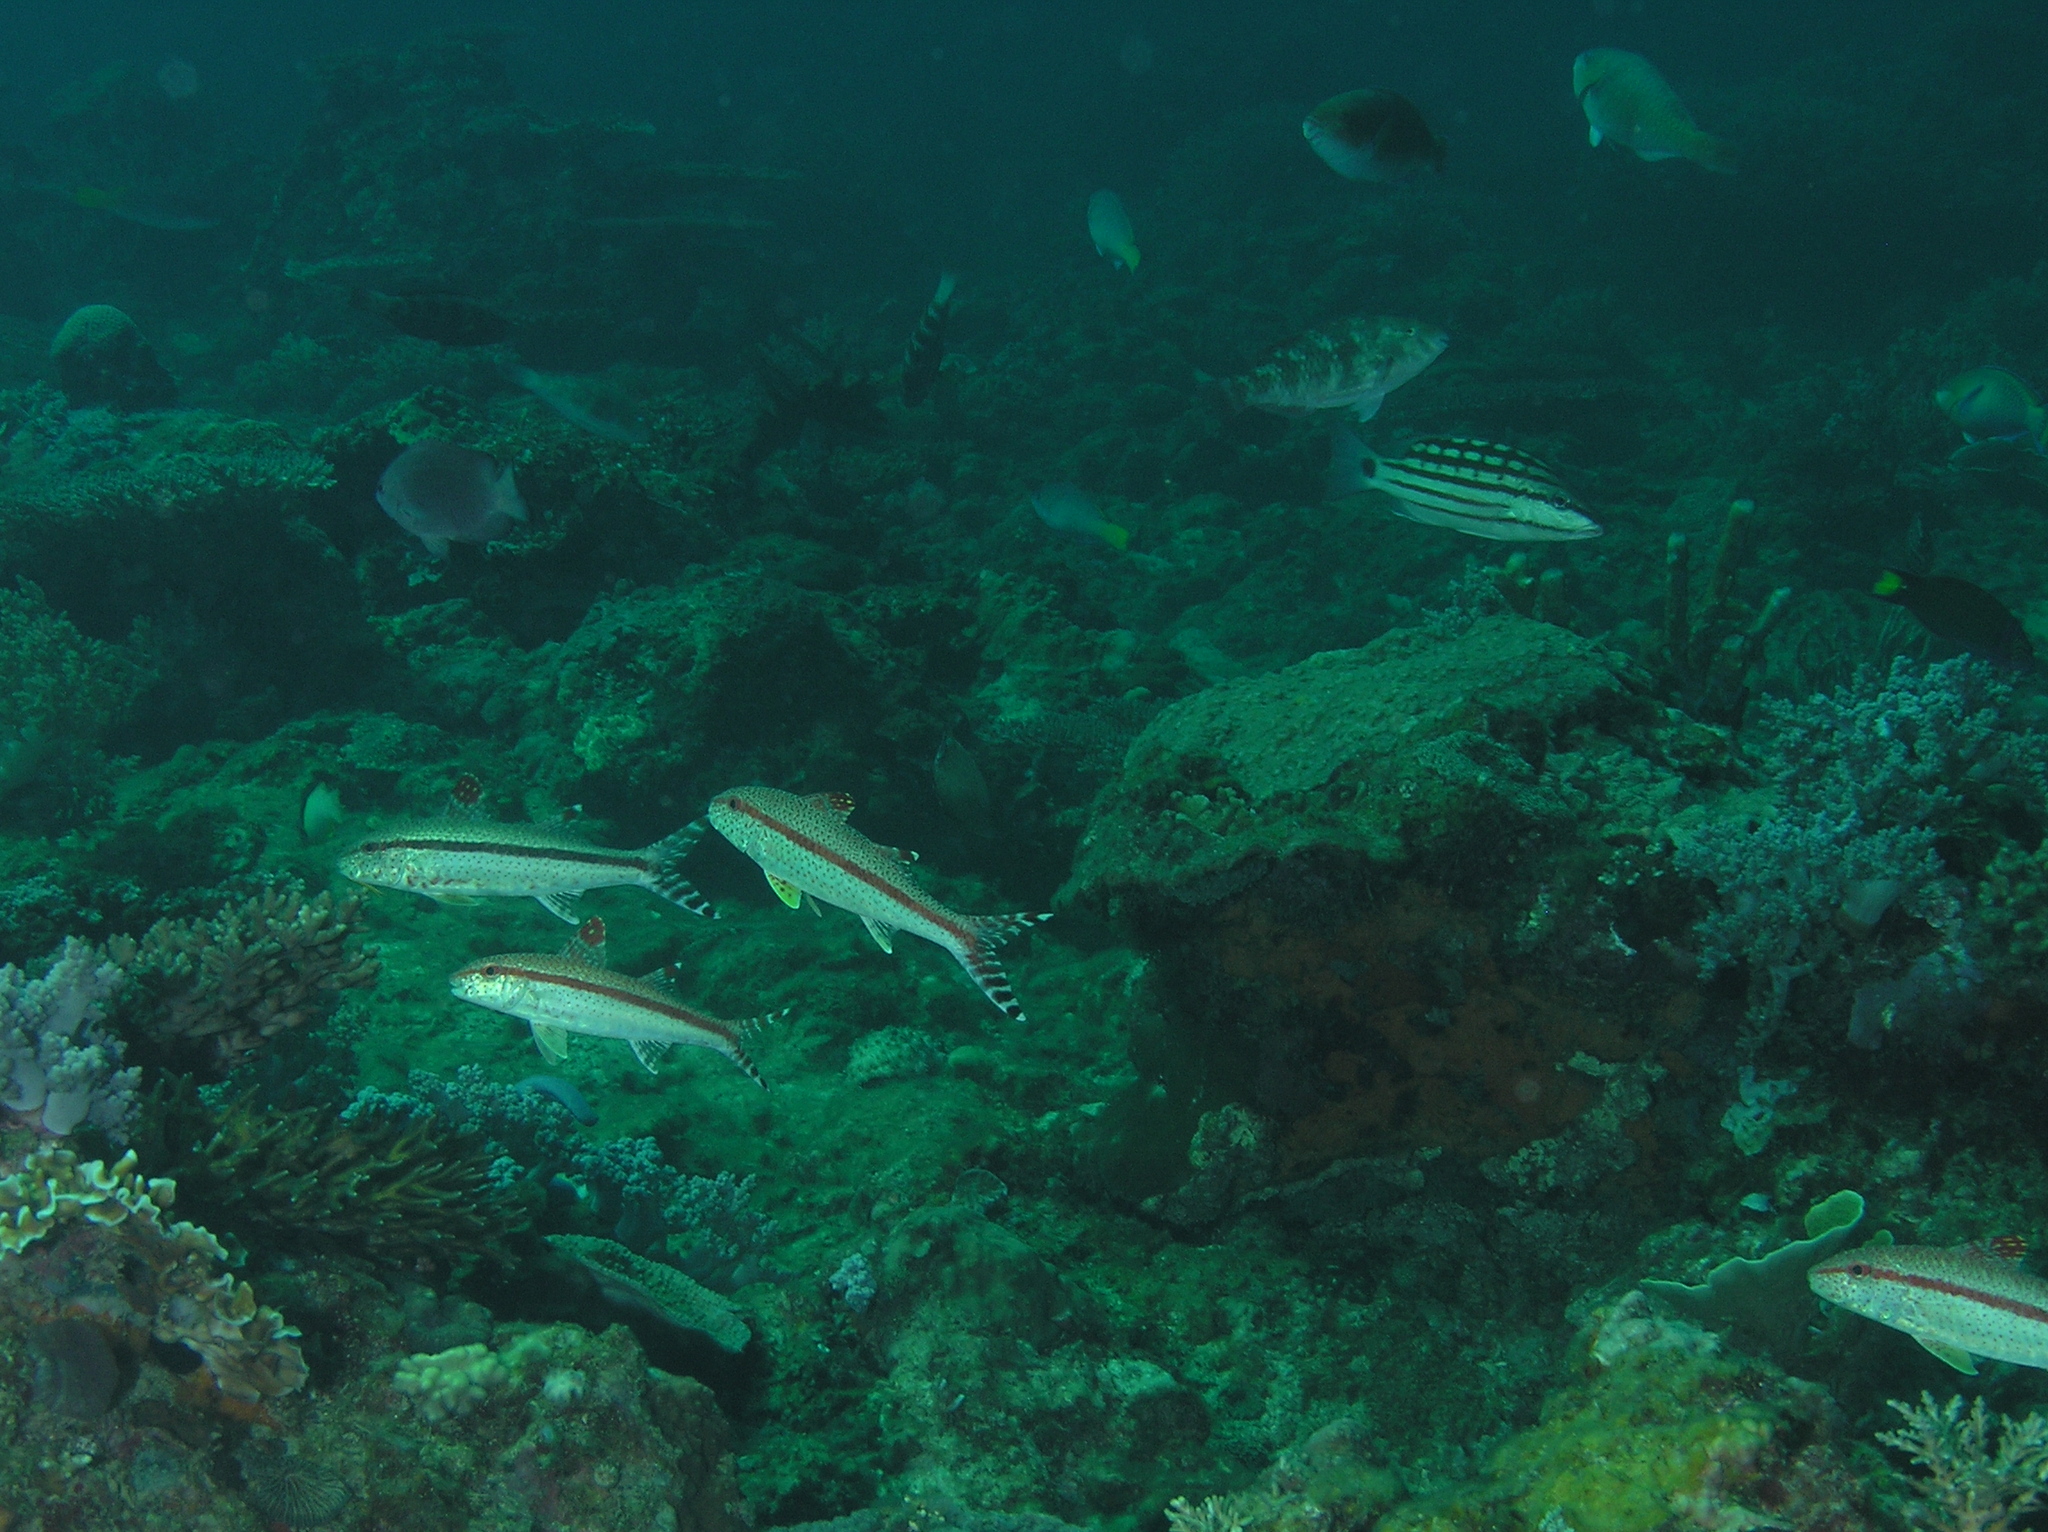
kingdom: Animalia
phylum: Chordata
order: Perciformes
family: Mullidae
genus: Upeneus
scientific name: Upeneus tragula
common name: Freckled goatfish
